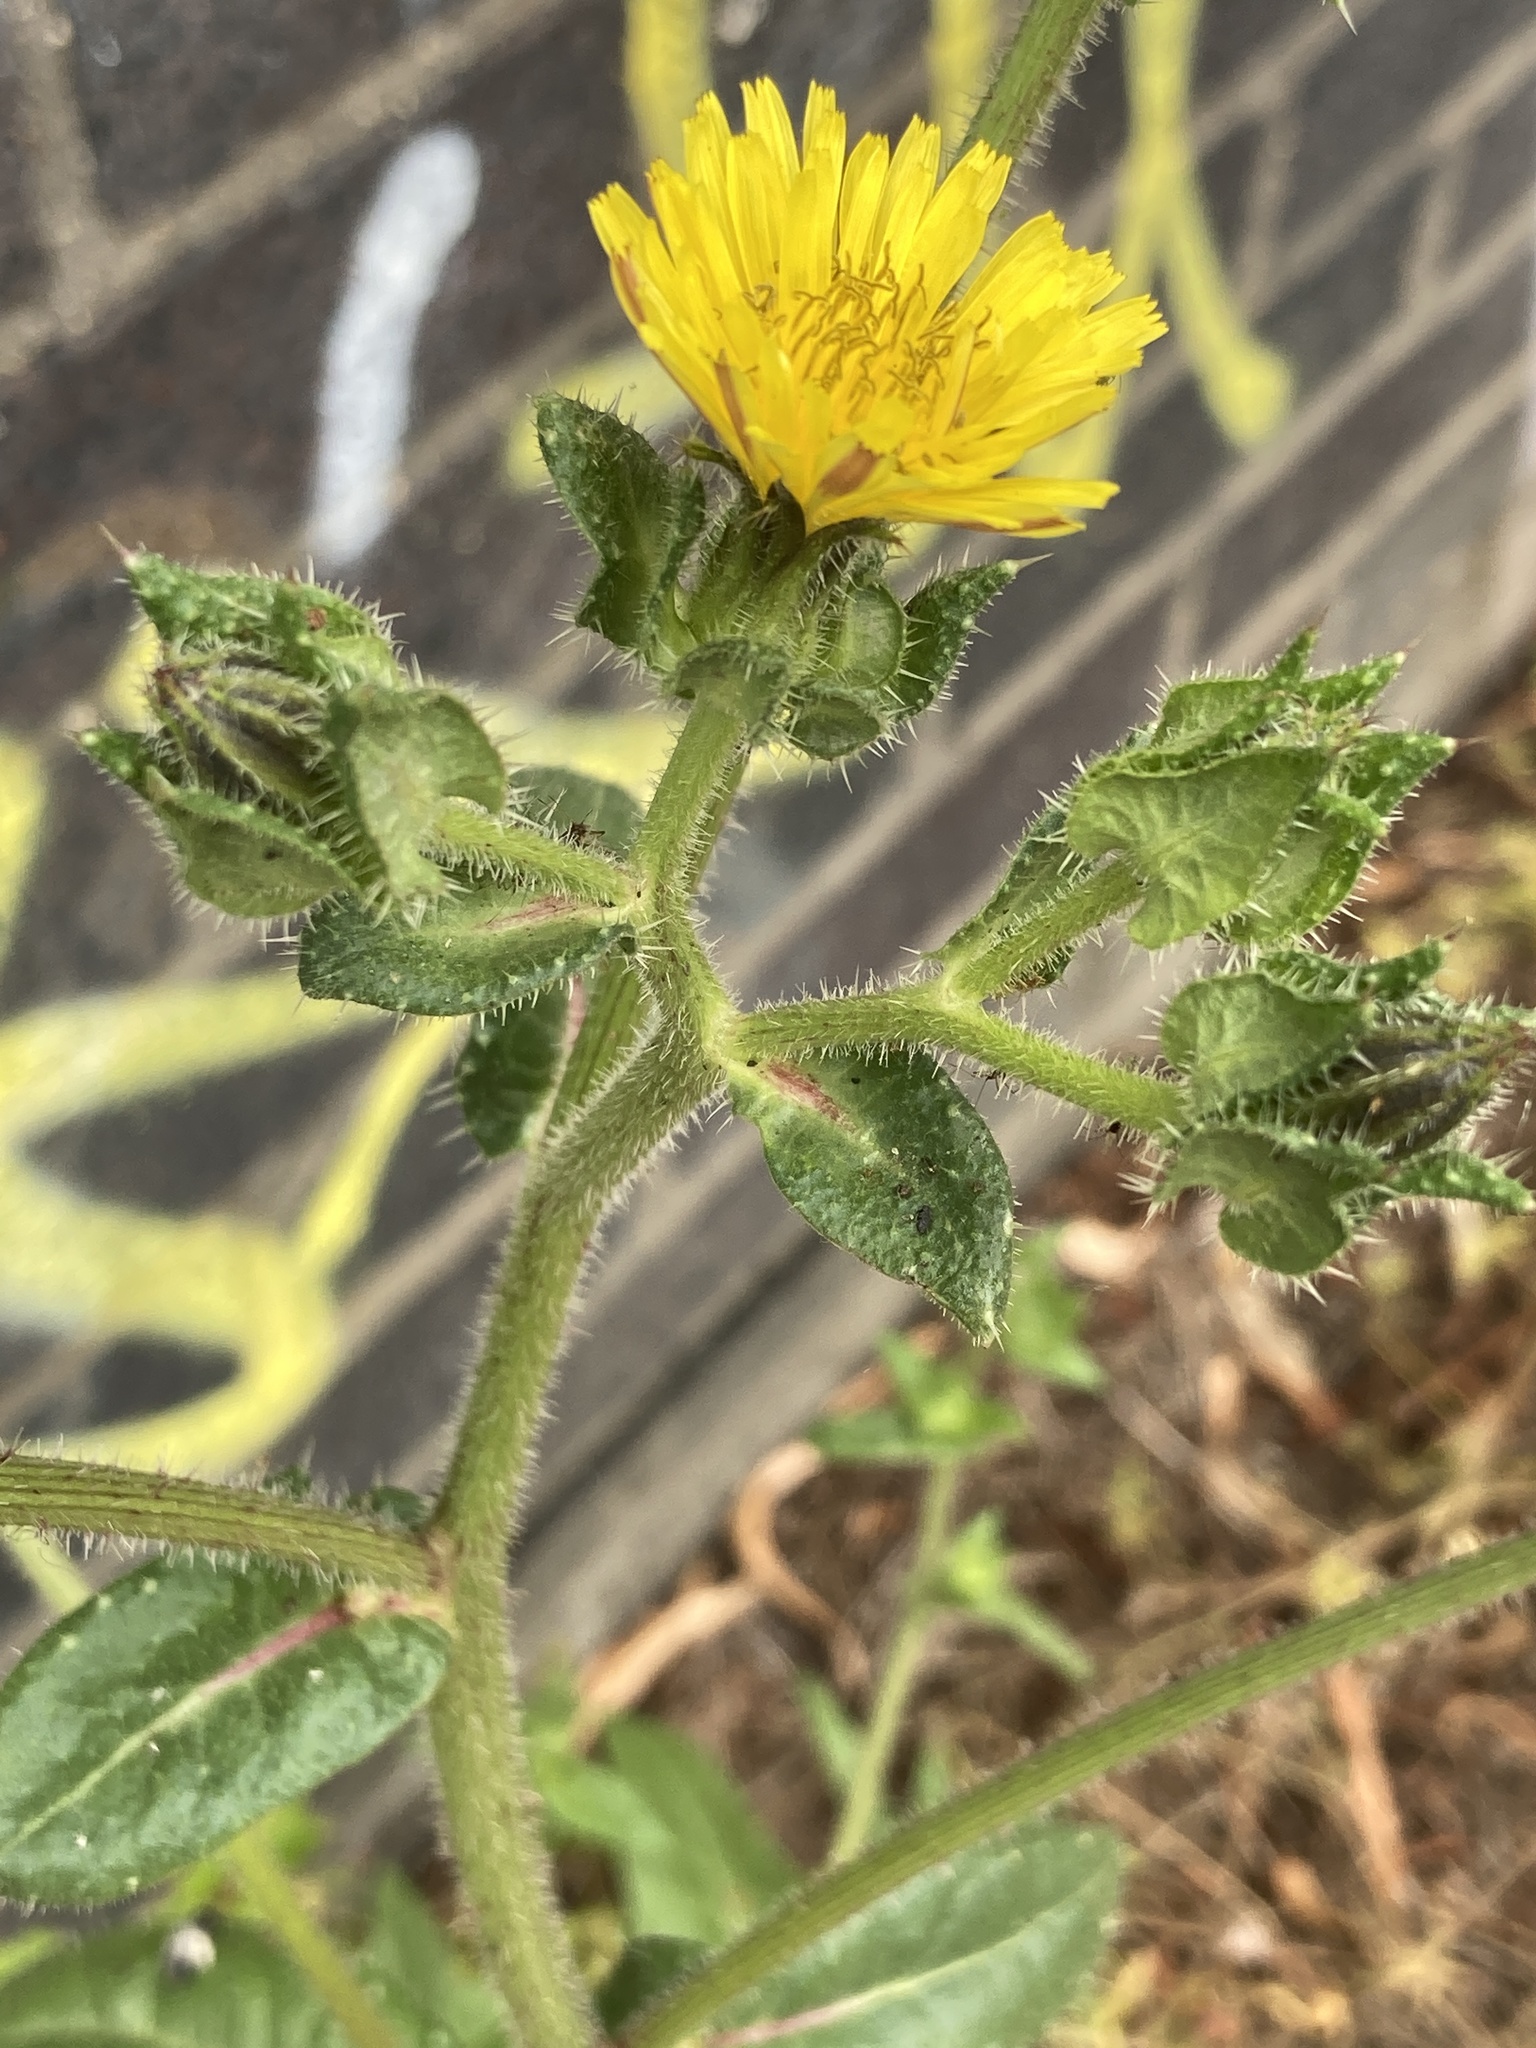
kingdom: Plantae
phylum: Tracheophyta
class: Magnoliopsida
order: Asterales
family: Asteraceae
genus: Helminthotheca
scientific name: Helminthotheca echioides
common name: Ox-tongue
